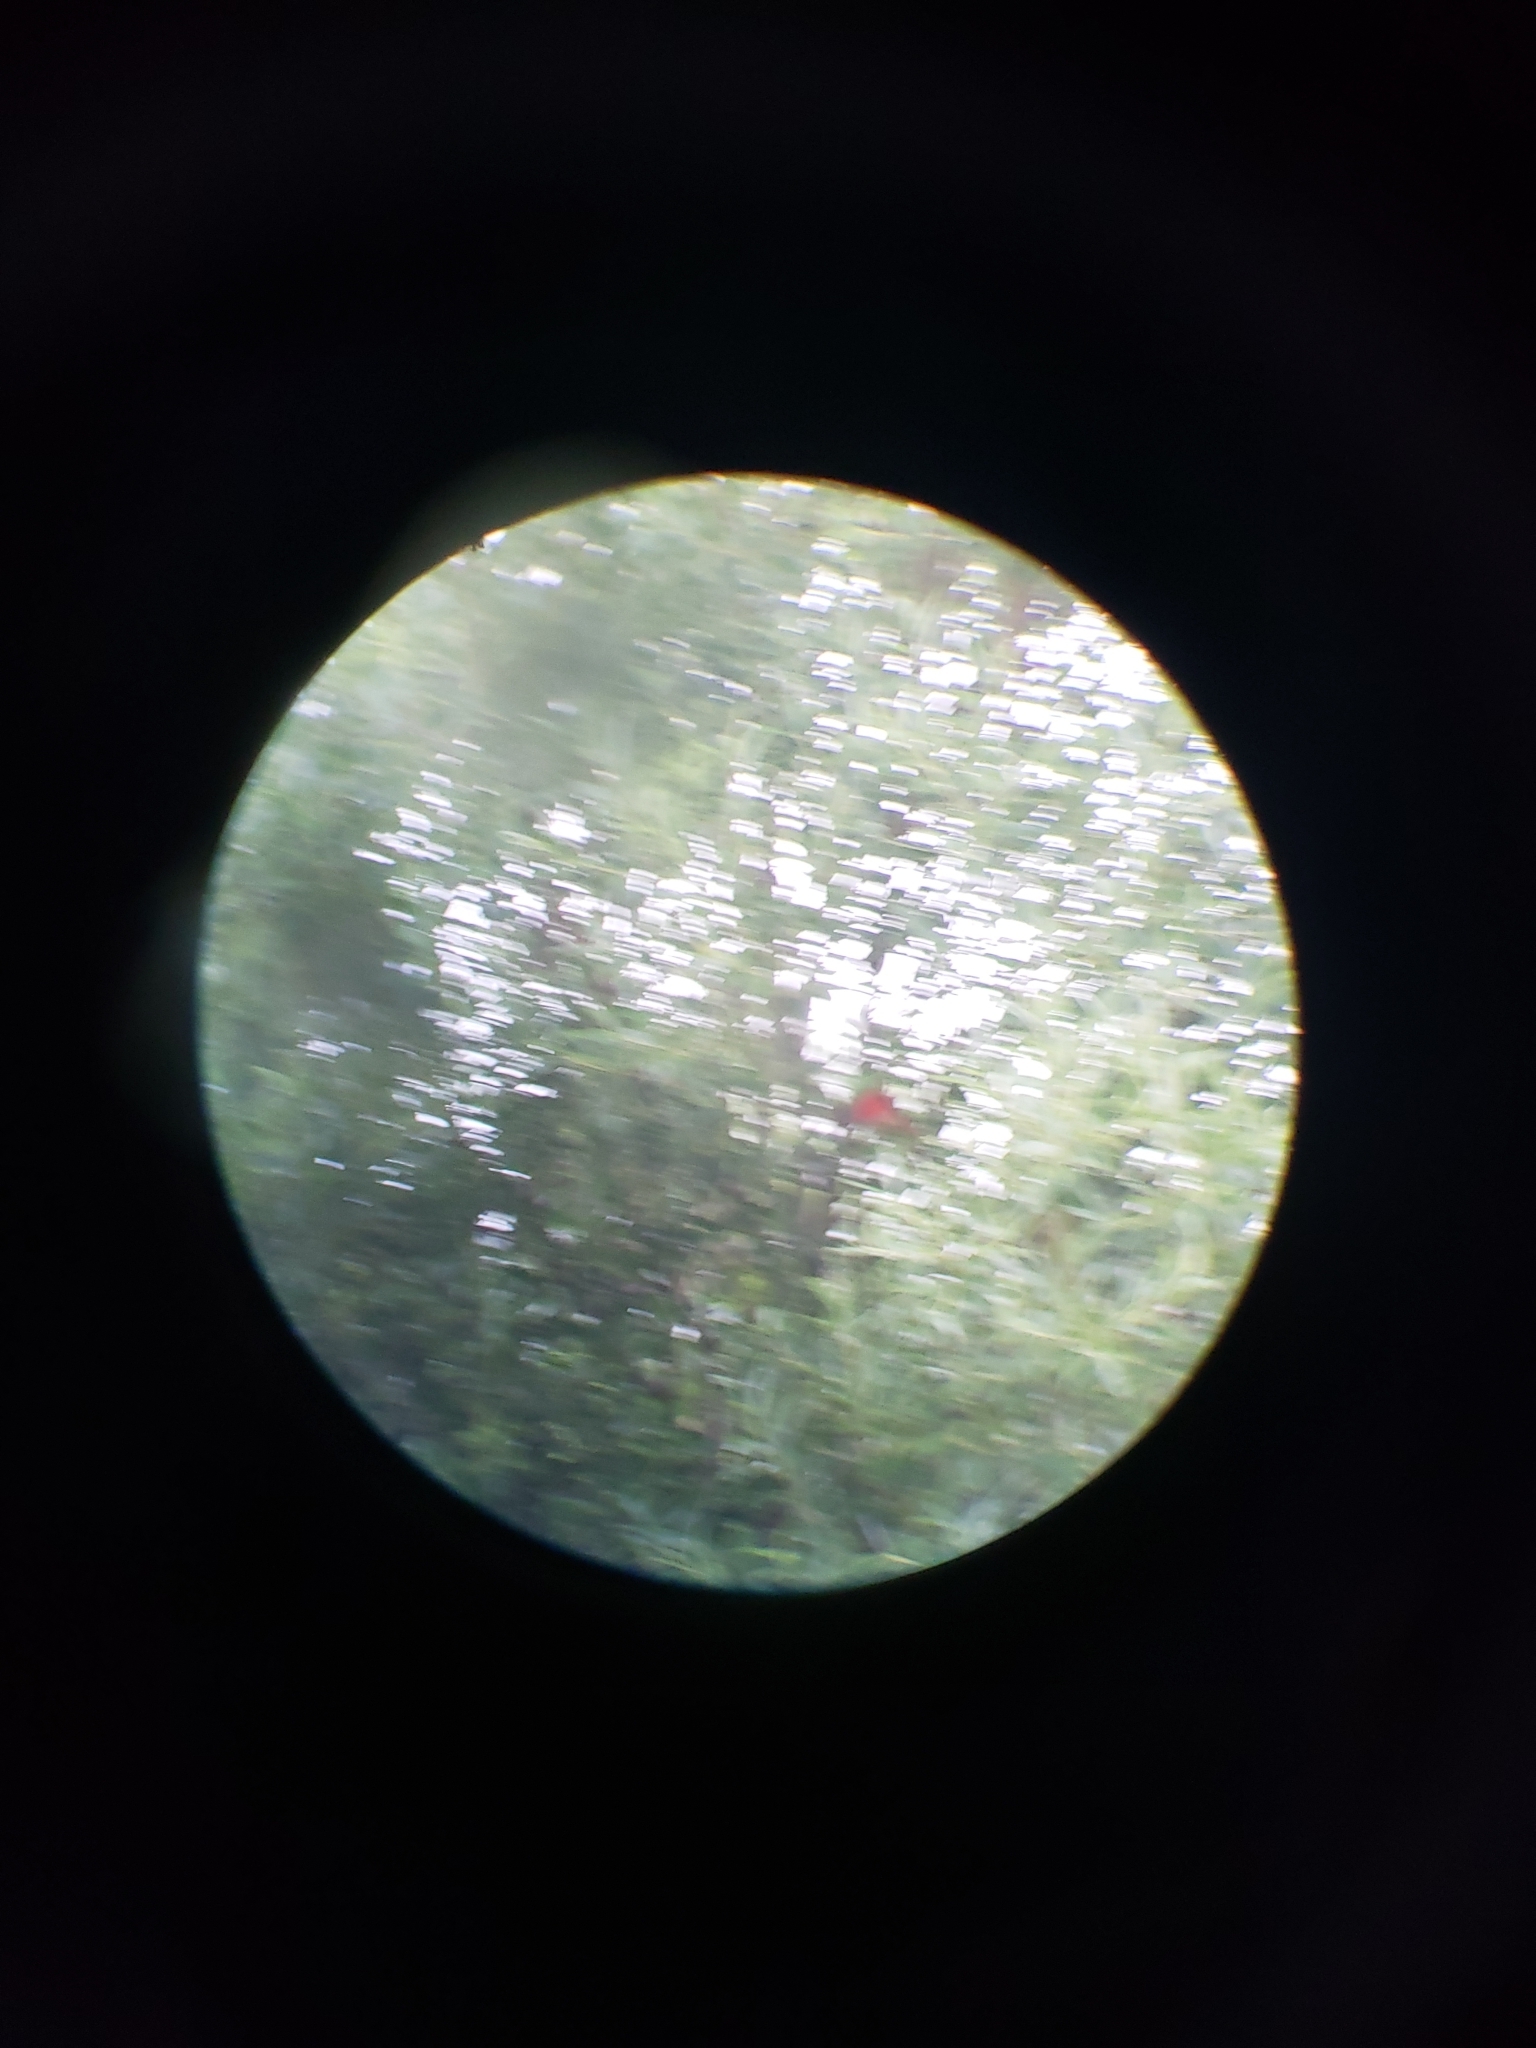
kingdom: Animalia
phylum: Chordata
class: Aves
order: Passeriformes
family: Cardinalidae
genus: Piranga
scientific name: Piranga olivacea
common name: Scarlet tanager
